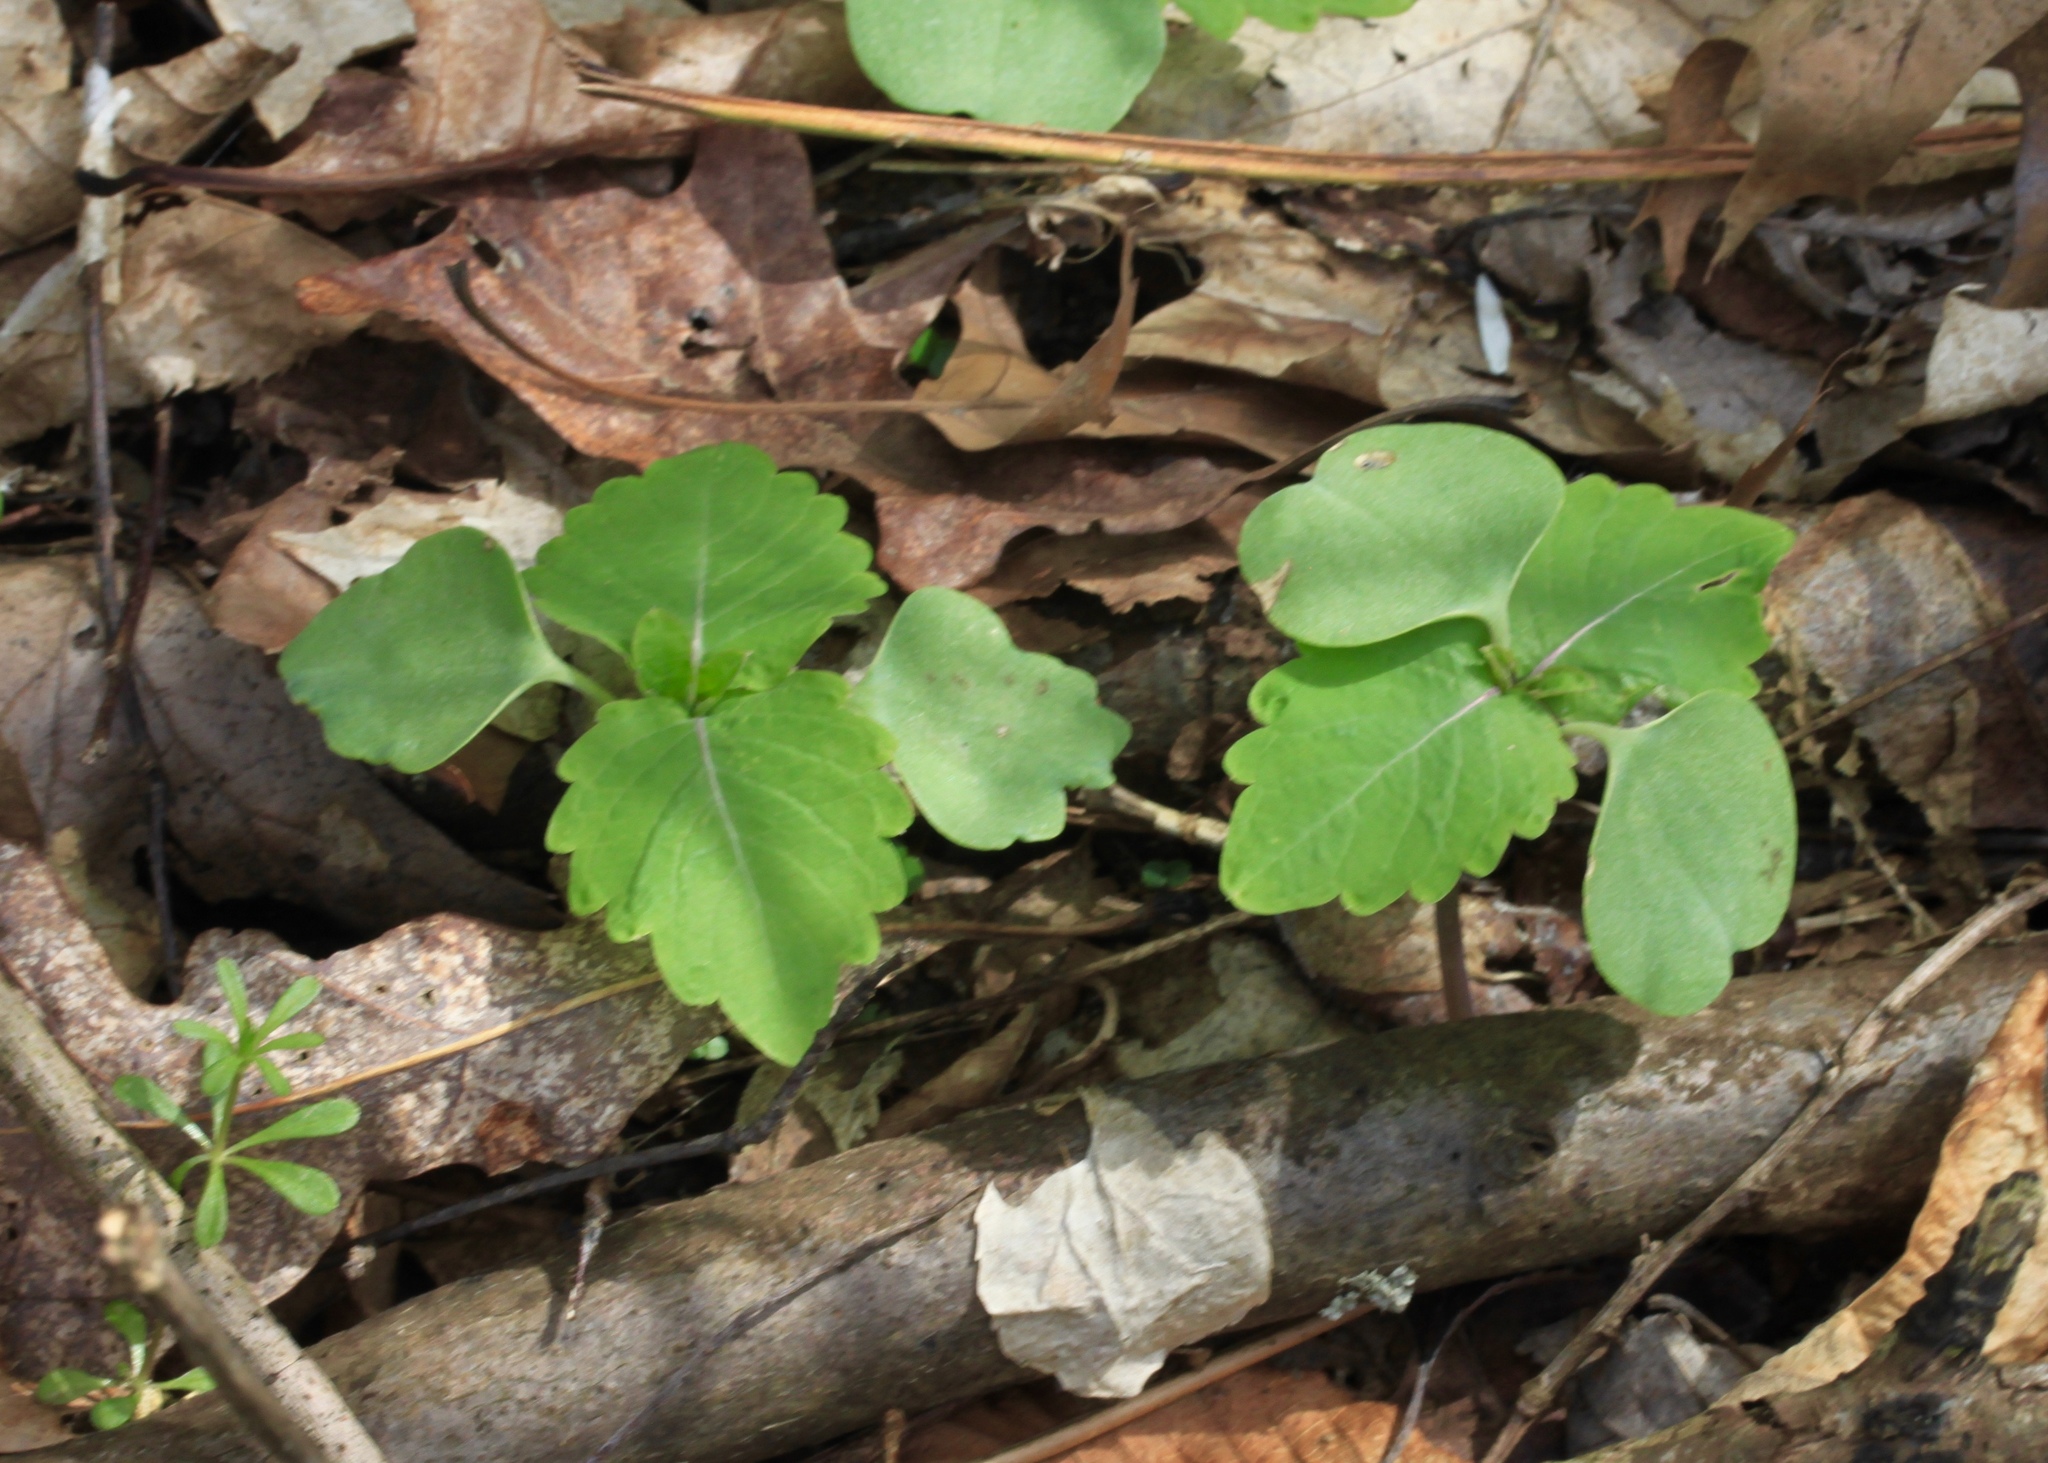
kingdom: Plantae
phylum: Tracheophyta
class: Magnoliopsida
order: Ericales
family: Balsaminaceae
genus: Impatiens
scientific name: Impatiens capensis
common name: Orange balsam
